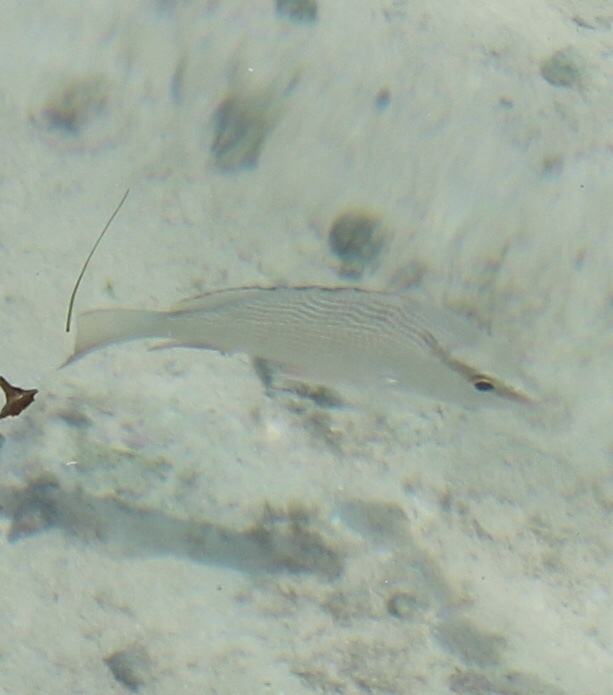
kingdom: Animalia
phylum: Chordata
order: Perciformes
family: Lutjanidae
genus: Lutjanus
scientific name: Lutjanus griseus
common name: Gray snapper
